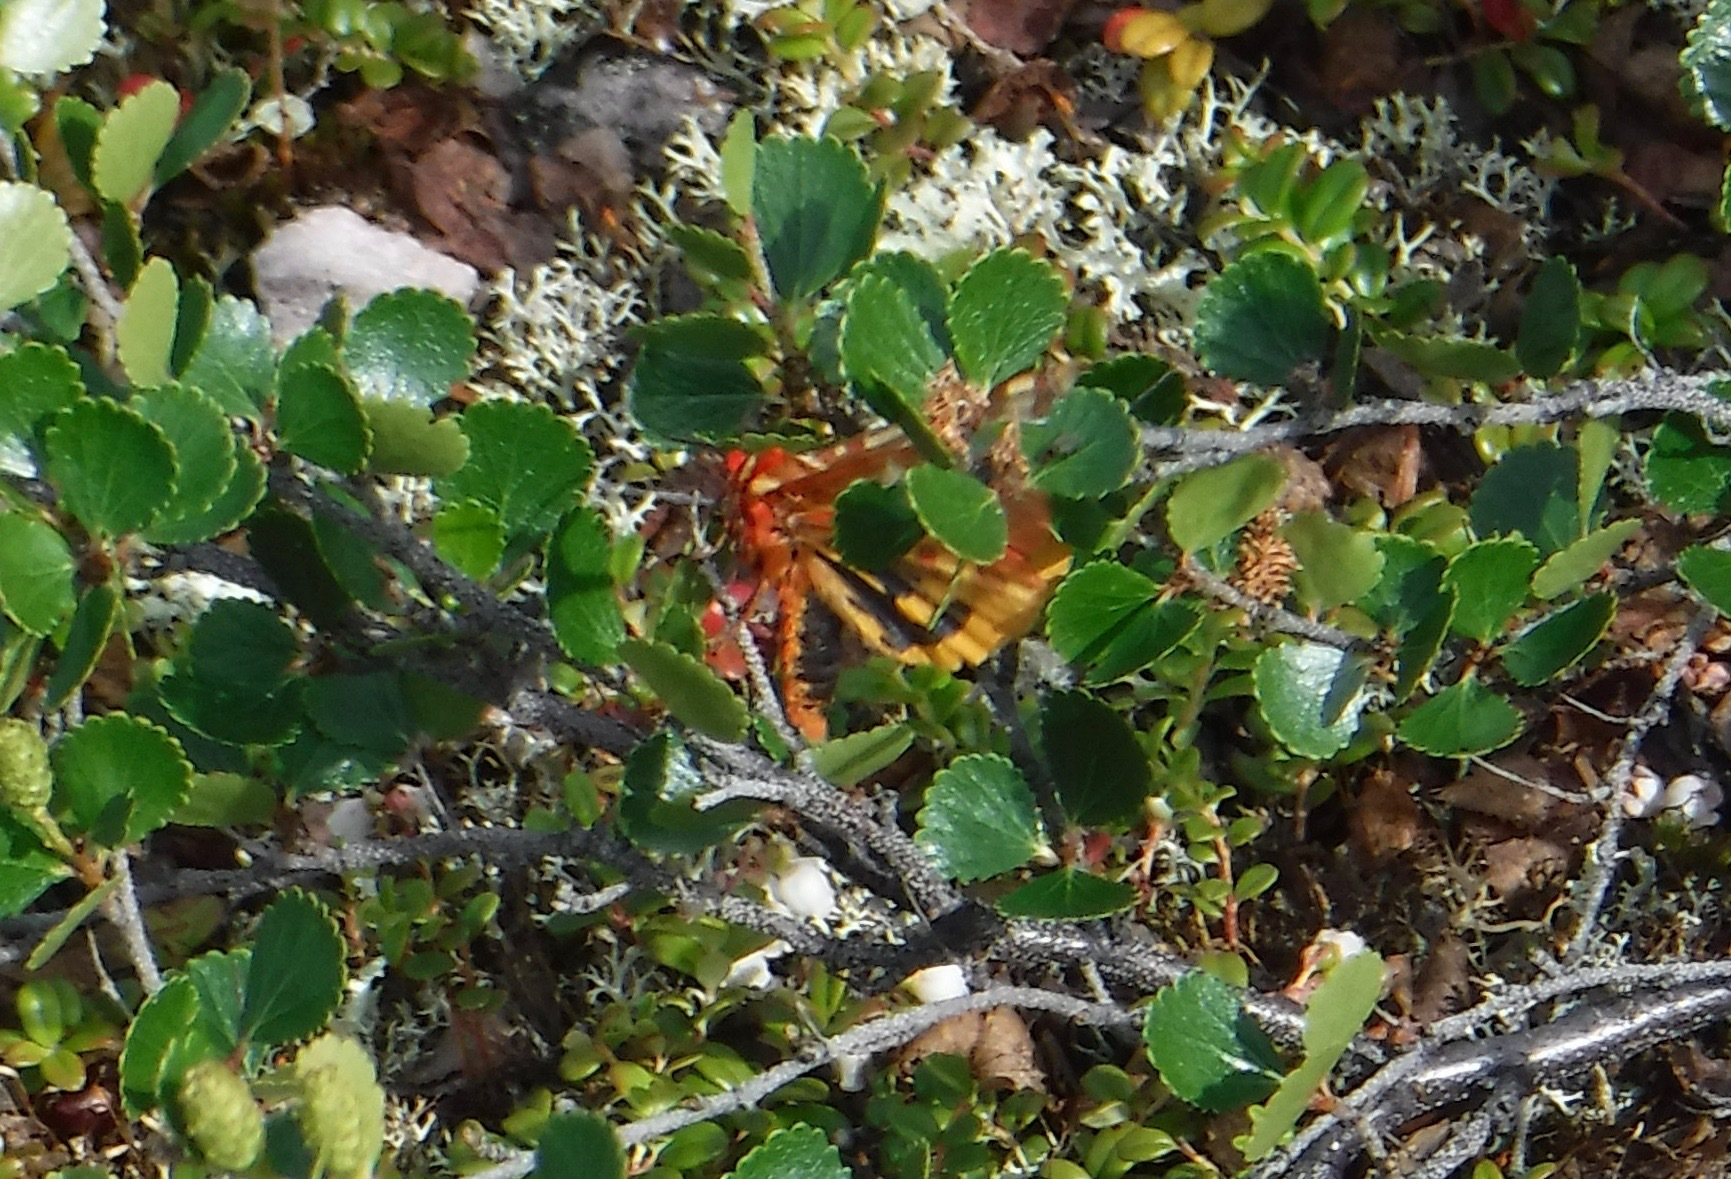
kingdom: Animalia
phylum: Arthropoda
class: Insecta
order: Lepidoptera
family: Erebidae
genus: Arctia
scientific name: Arctia parthenos
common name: St. lawrence tiger moth
